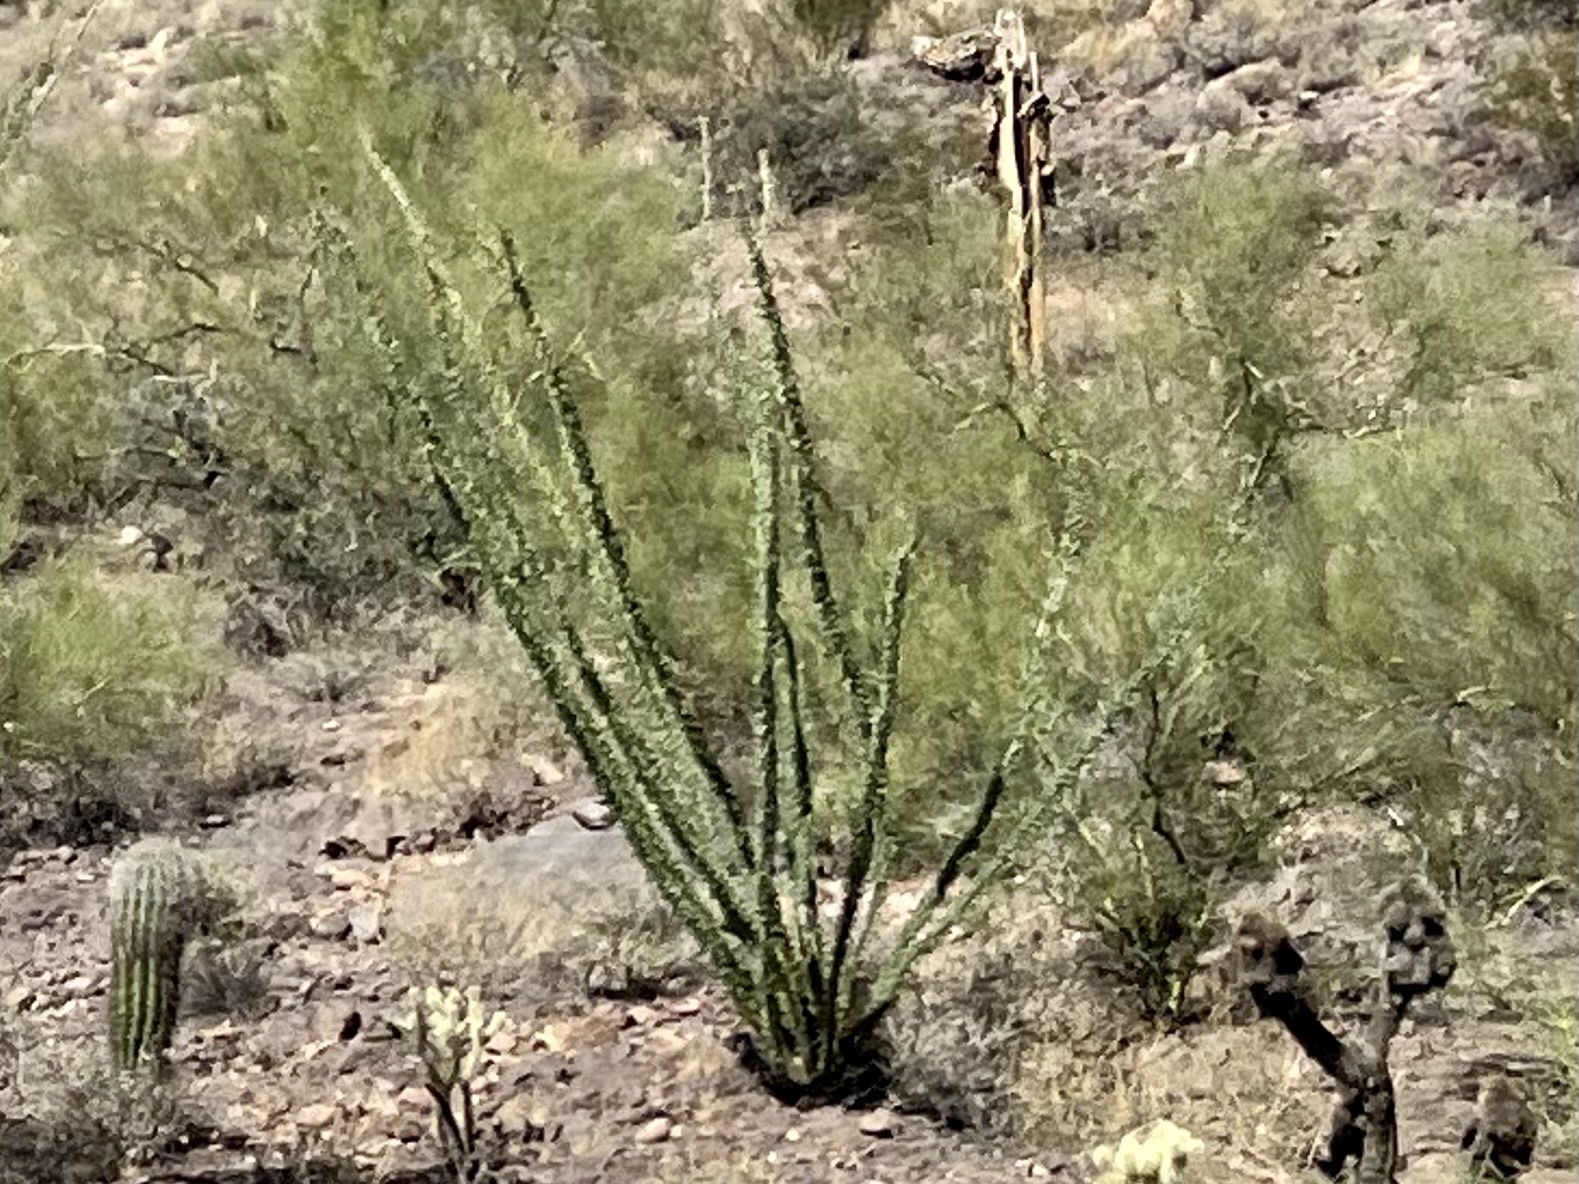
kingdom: Plantae
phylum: Tracheophyta
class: Magnoliopsida
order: Ericales
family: Fouquieriaceae
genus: Fouquieria
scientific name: Fouquieria splendens
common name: Vine-cactus
